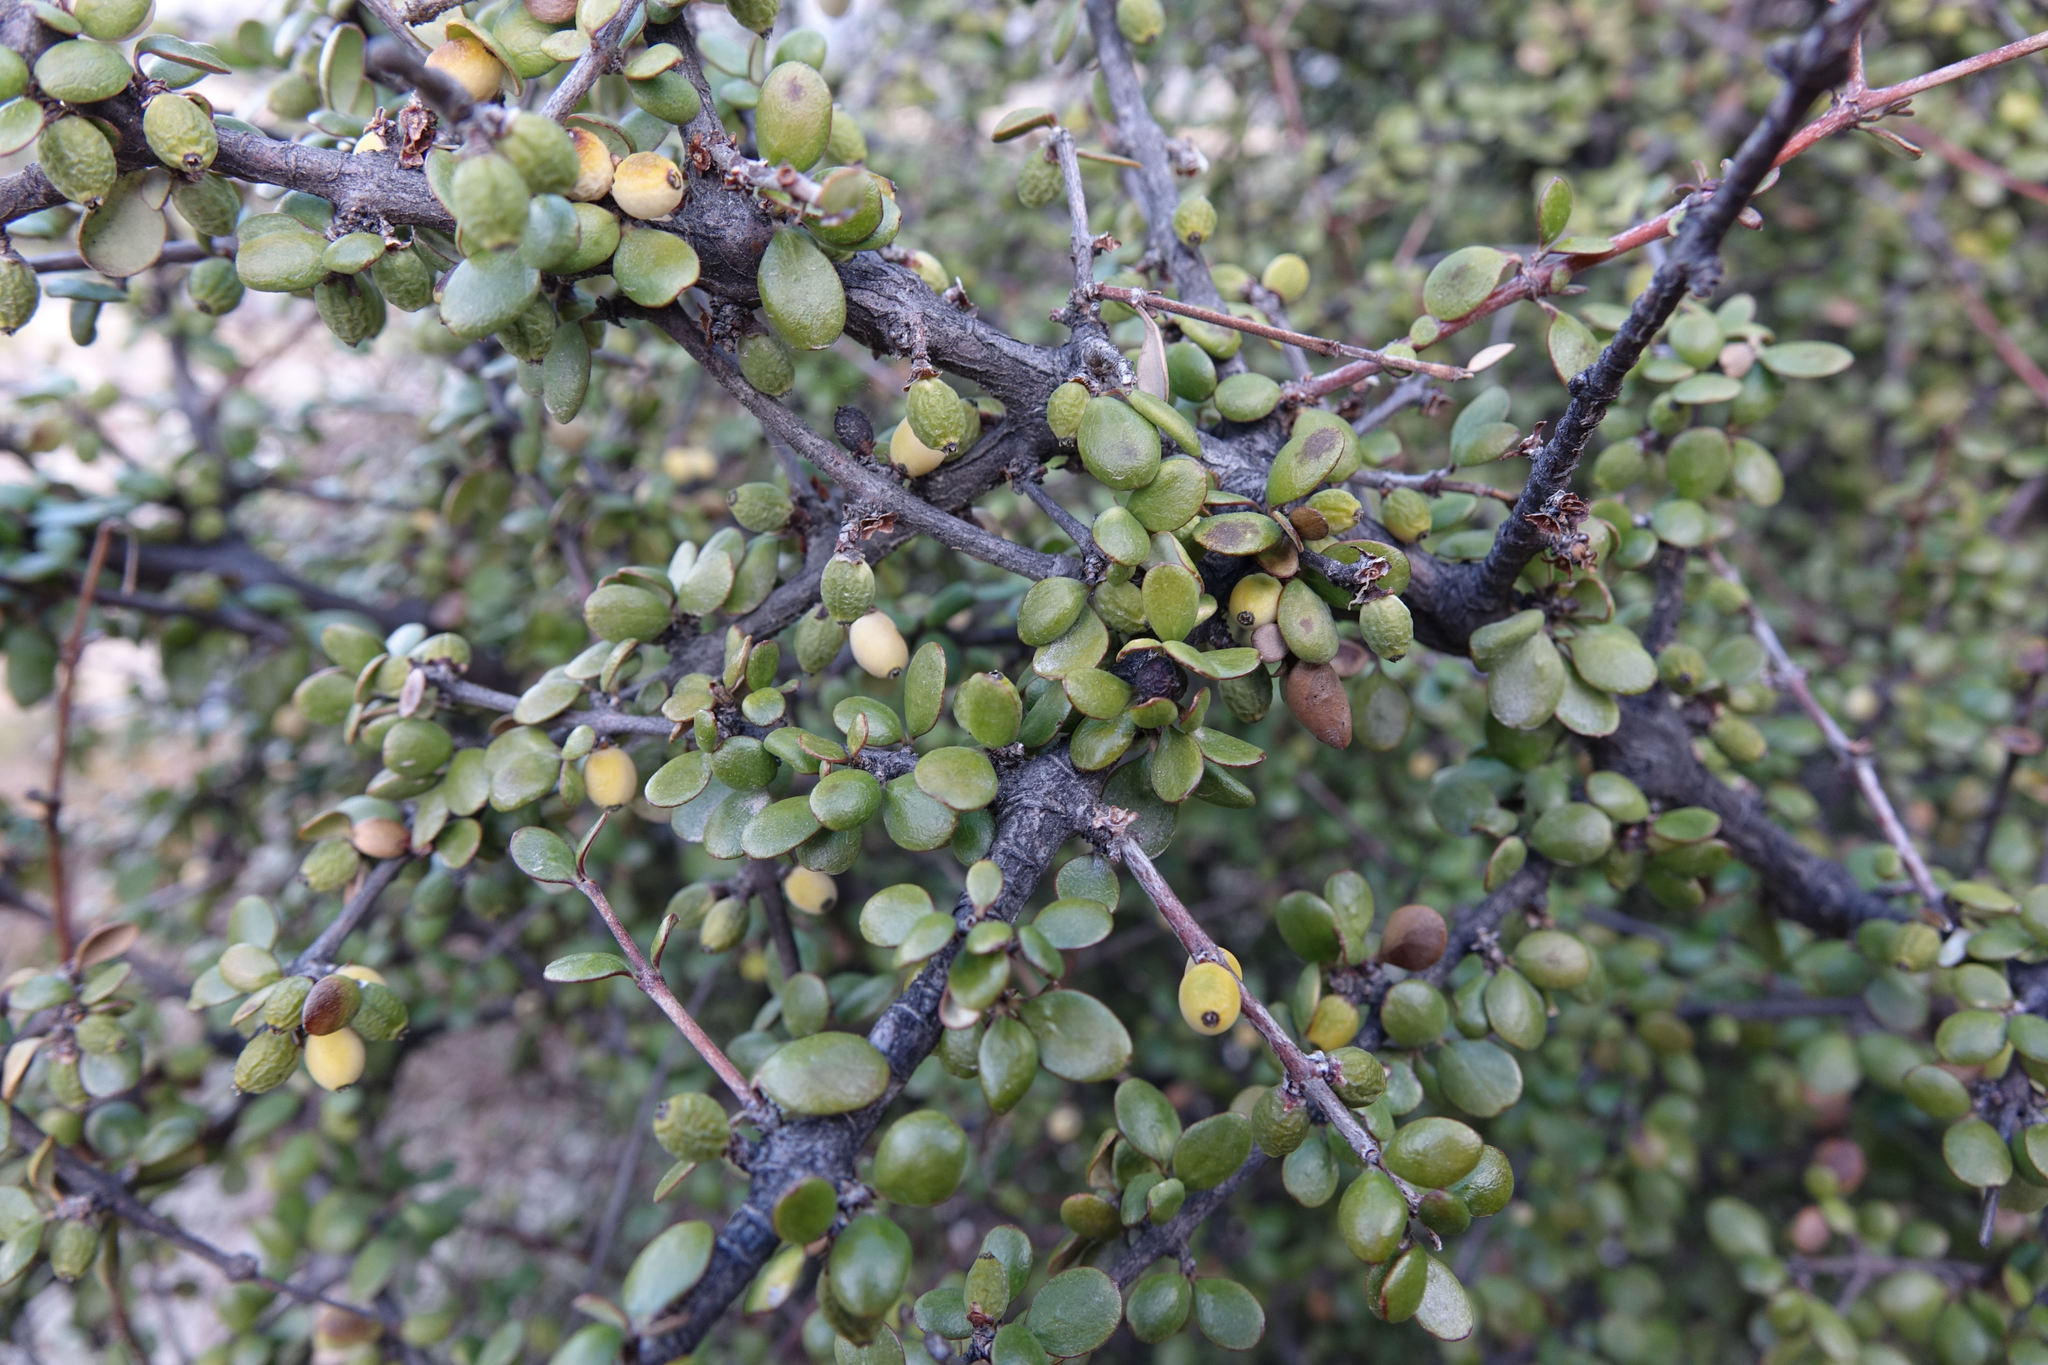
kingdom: Plantae
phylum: Tracheophyta
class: Magnoliopsida
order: Gentianales
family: Rubiaceae
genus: Coprosma
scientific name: Coprosma crassifolia
